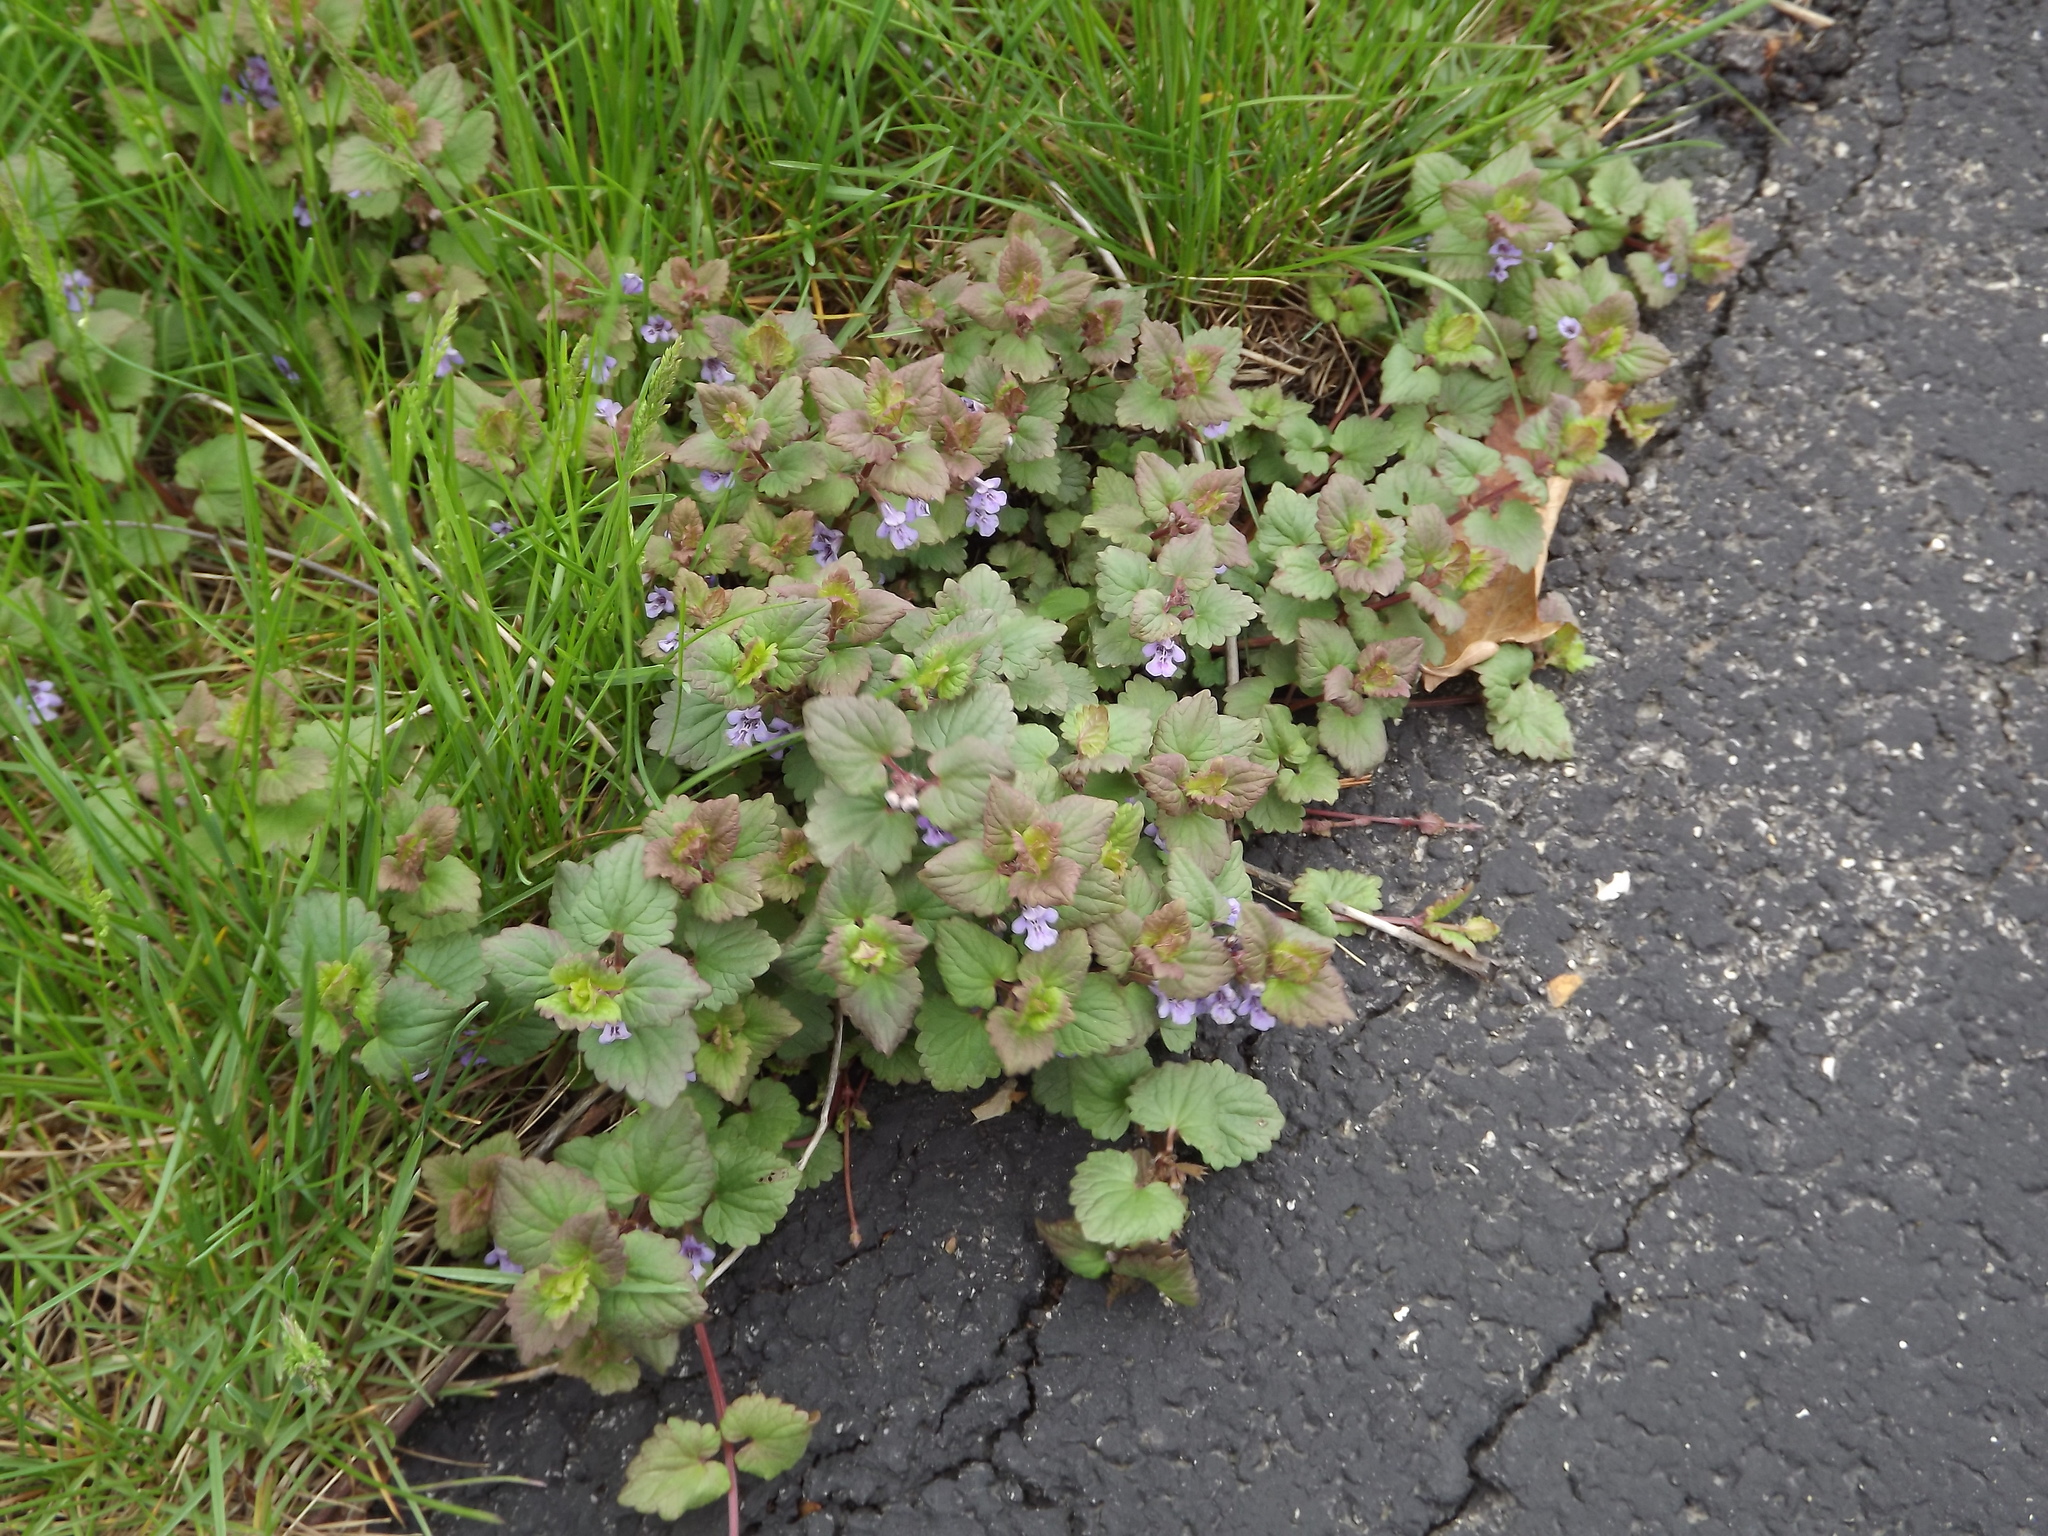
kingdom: Plantae
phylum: Tracheophyta
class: Magnoliopsida
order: Lamiales
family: Lamiaceae
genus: Glechoma
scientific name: Glechoma hederacea
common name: Ground ivy
